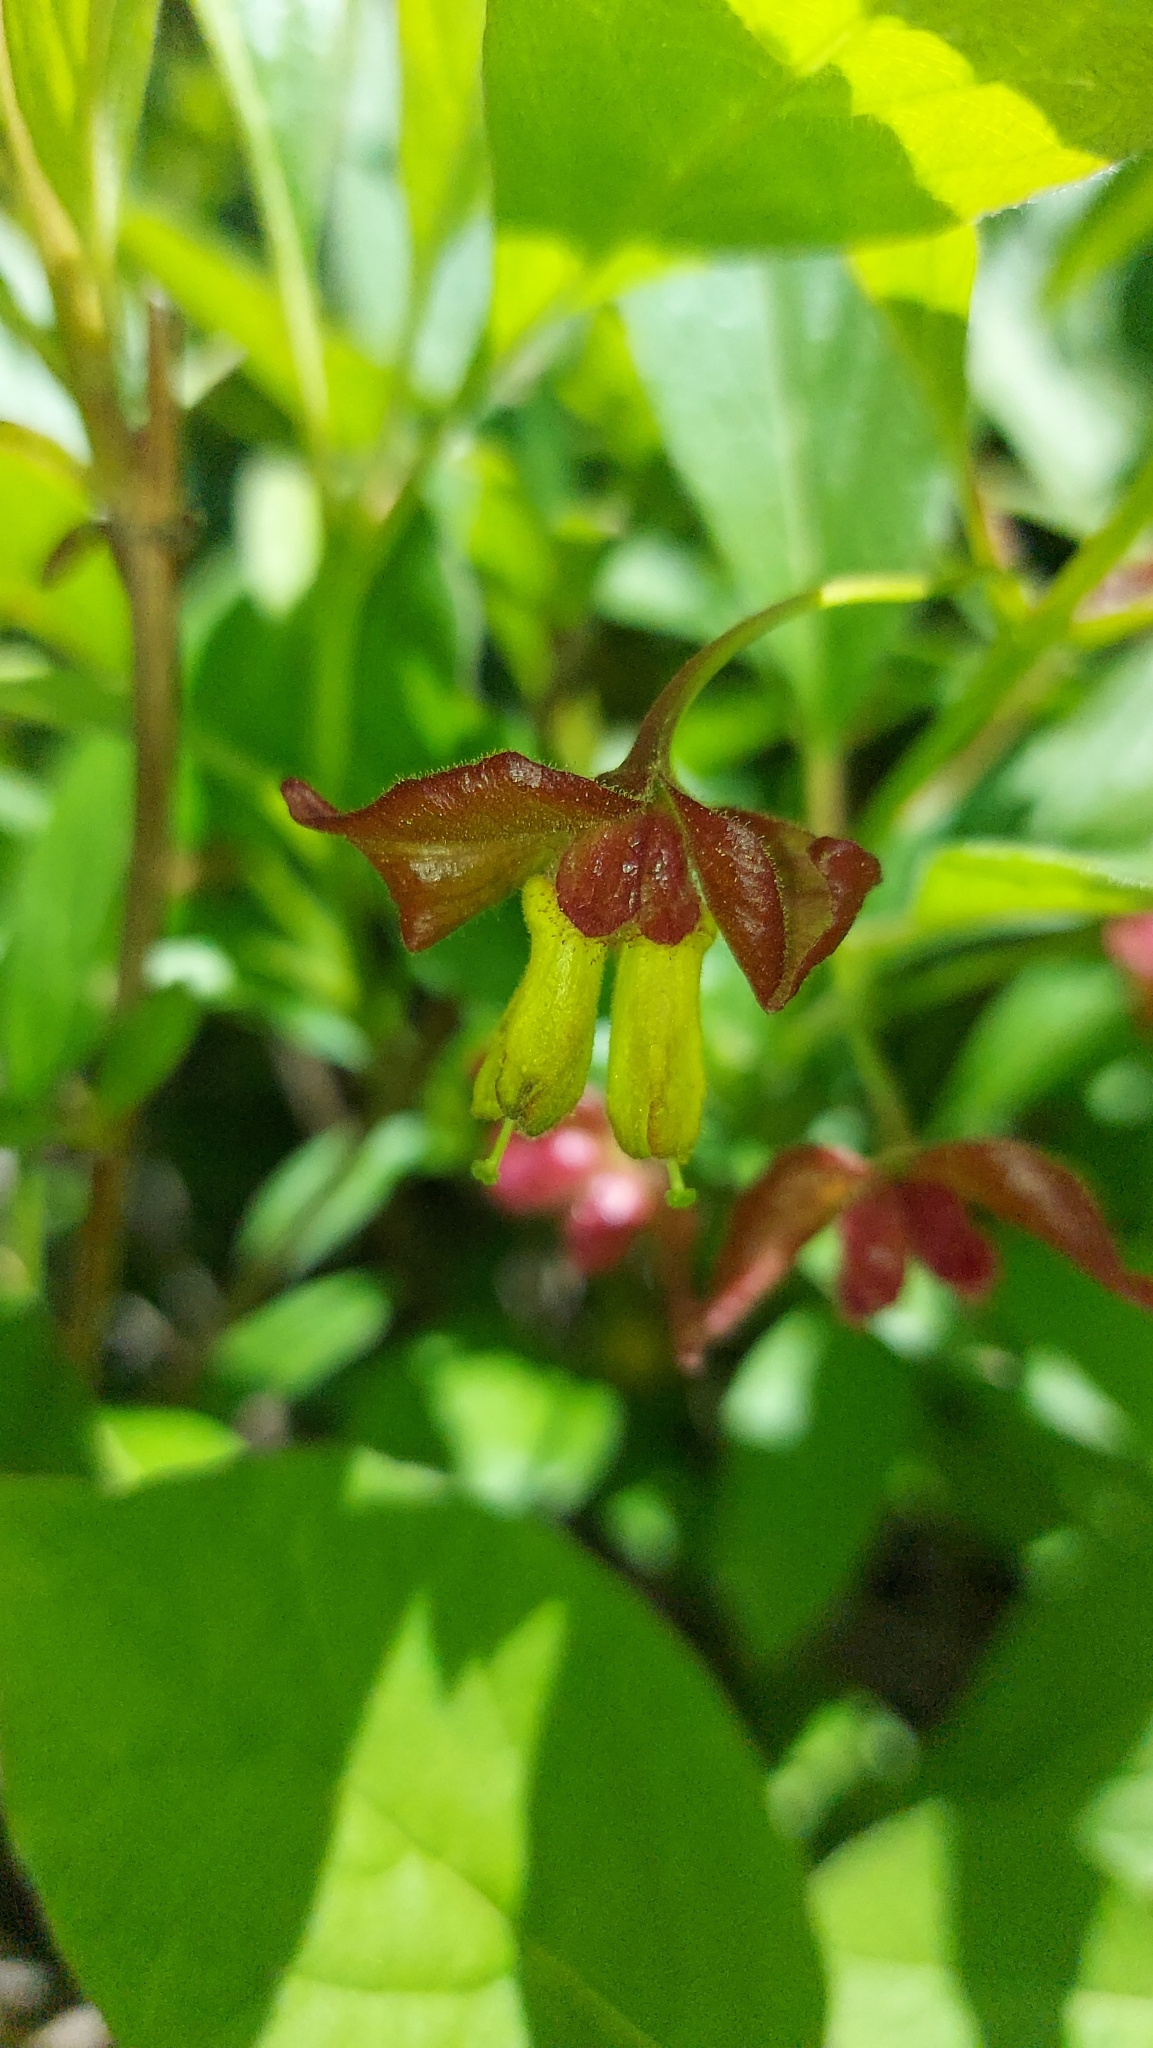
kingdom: Plantae
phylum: Tracheophyta
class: Magnoliopsida
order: Dipsacales
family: Caprifoliaceae
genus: Lonicera
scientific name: Lonicera involucrata
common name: Californian honeysuckle
